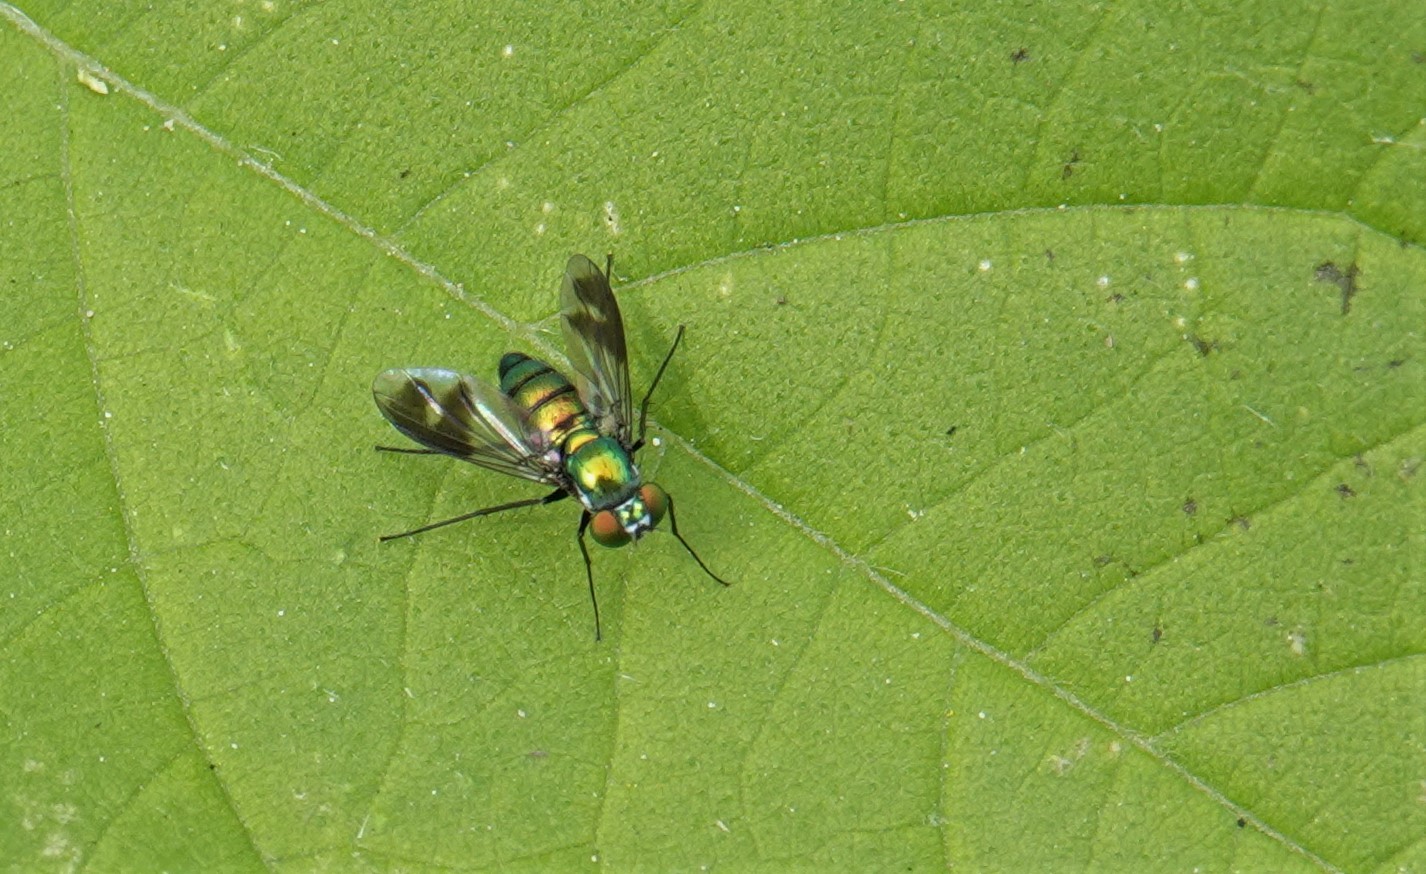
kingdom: Animalia
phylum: Arthropoda
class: Insecta
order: Diptera
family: Dolichopodidae
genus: Condylostylus
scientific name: Condylostylus patibulatus
